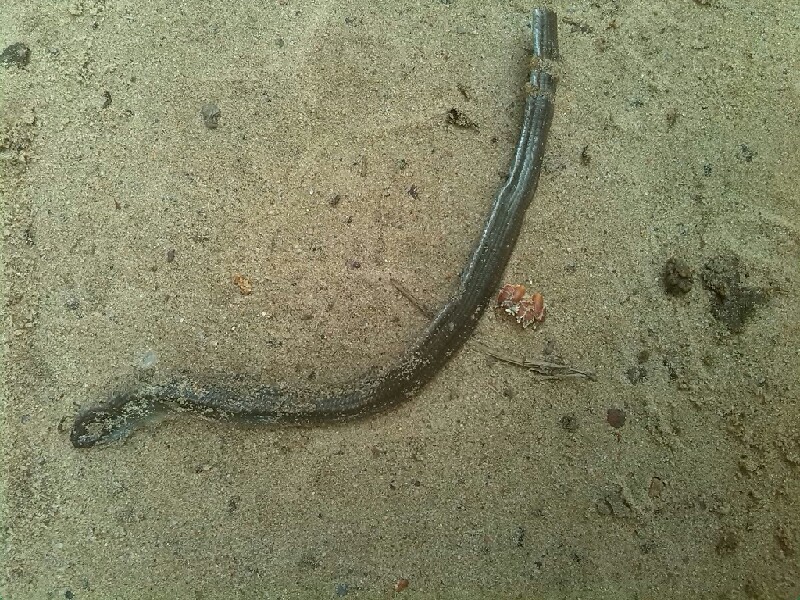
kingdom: Animalia
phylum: Chordata
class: Squamata
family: Anguidae
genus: Anguis
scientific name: Anguis colchica
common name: Slow worm
